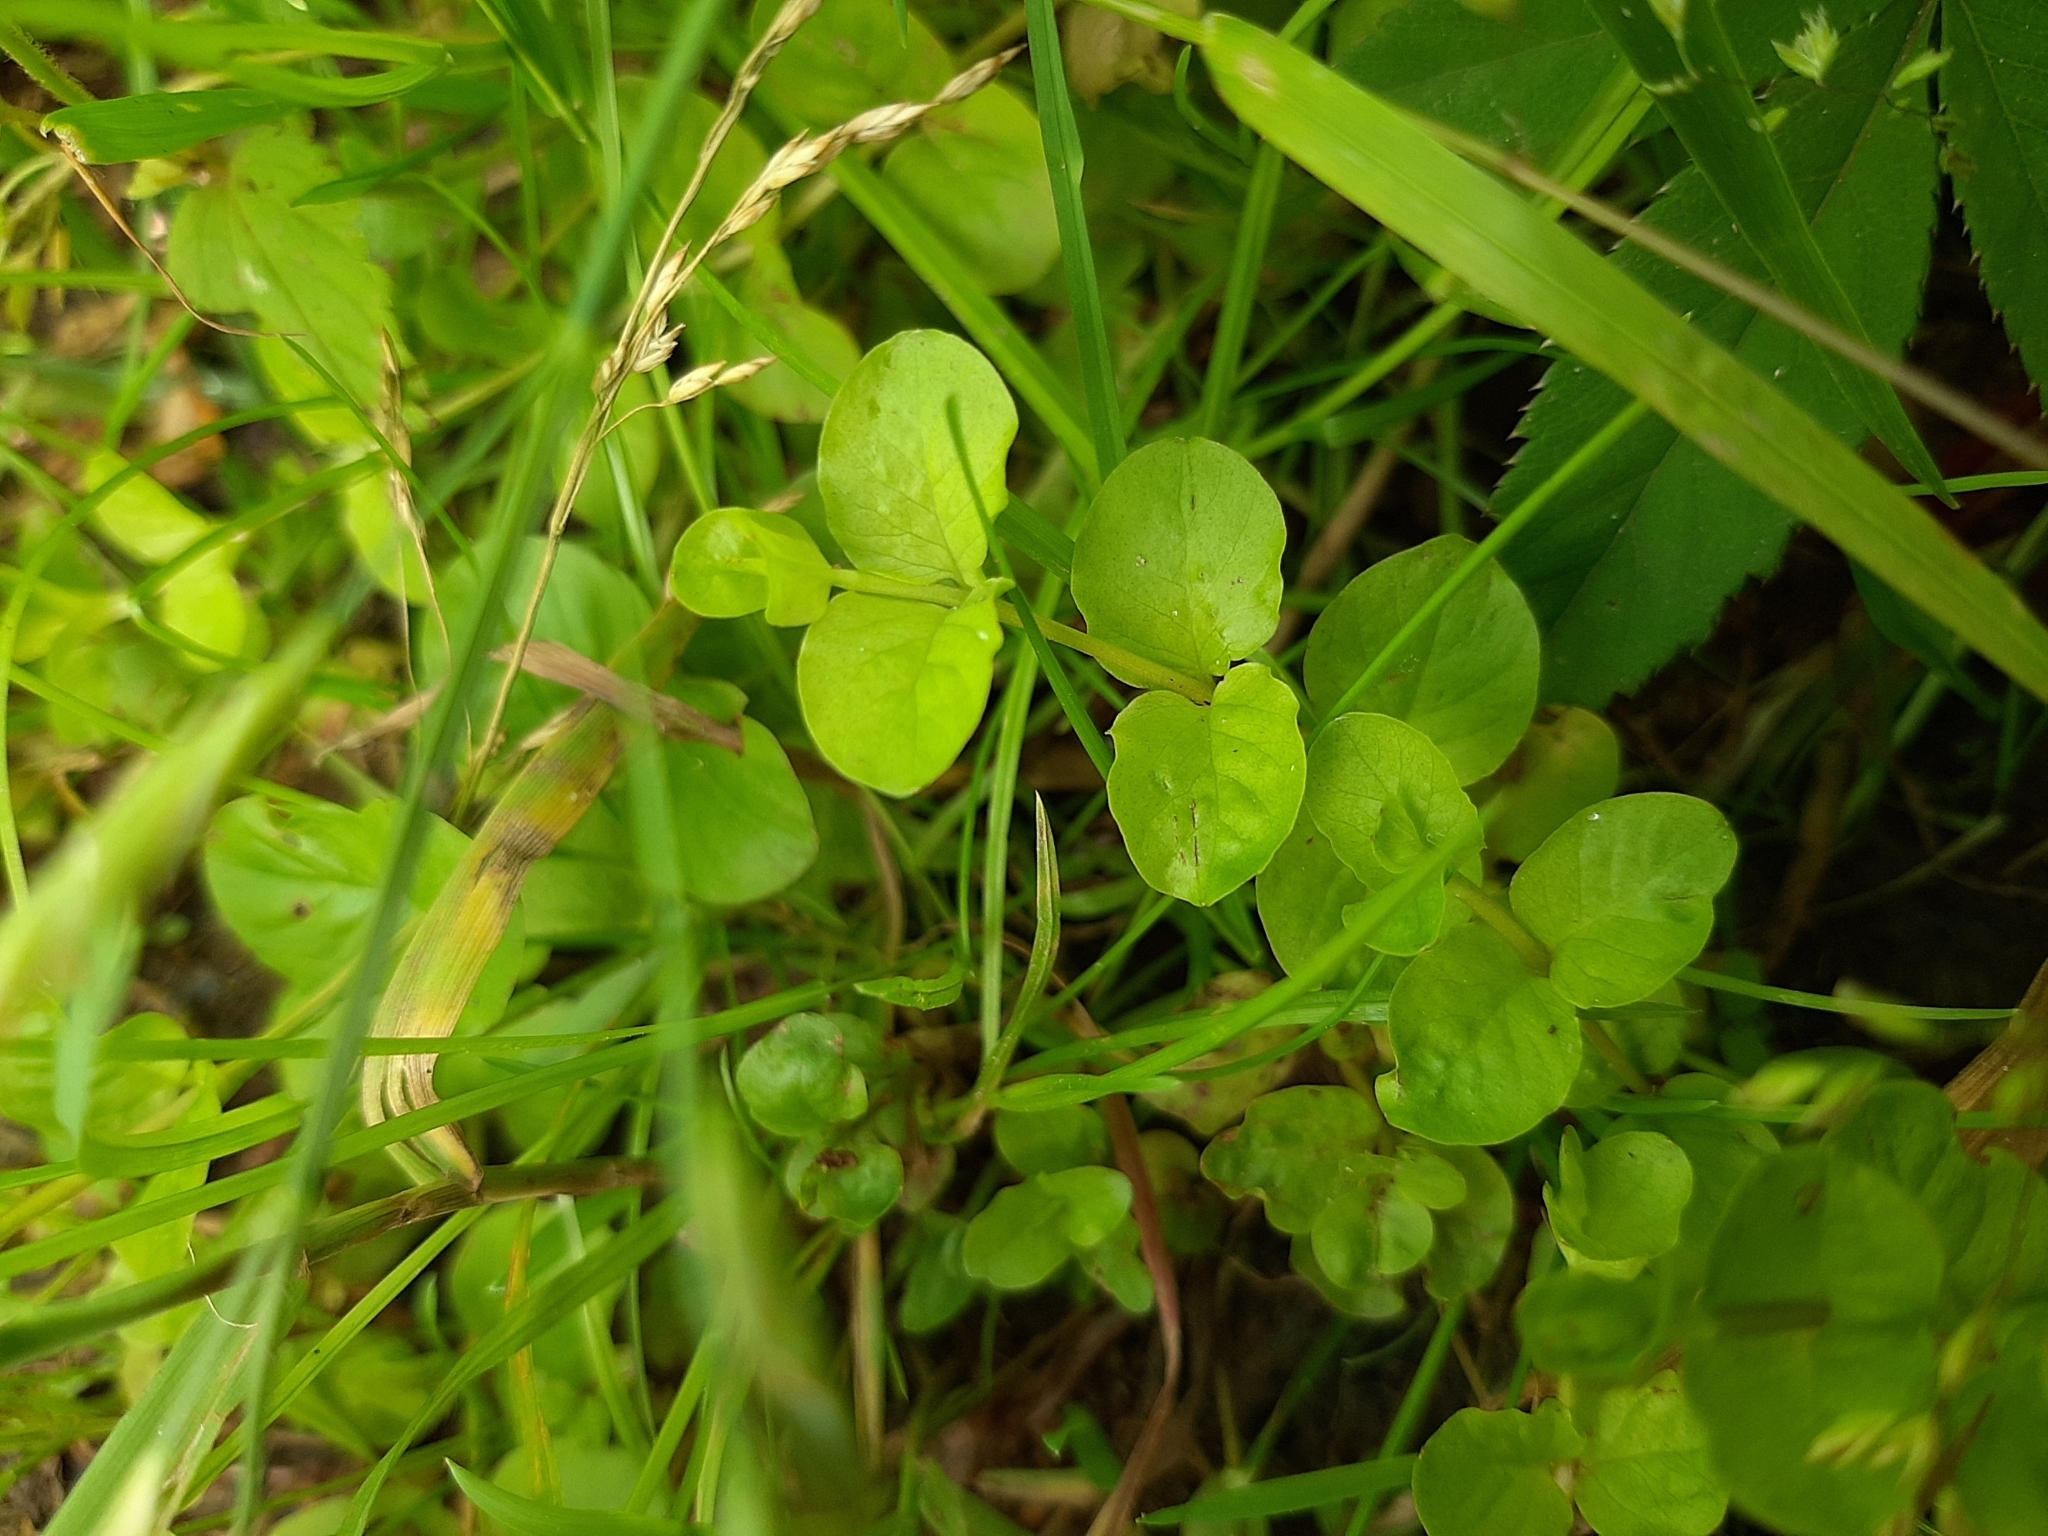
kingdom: Plantae
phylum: Tracheophyta
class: Magnoliopsida
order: Ericales
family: Primulaceae
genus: Lysimachia
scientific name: Lysimachia nummularia
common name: Moneywort
